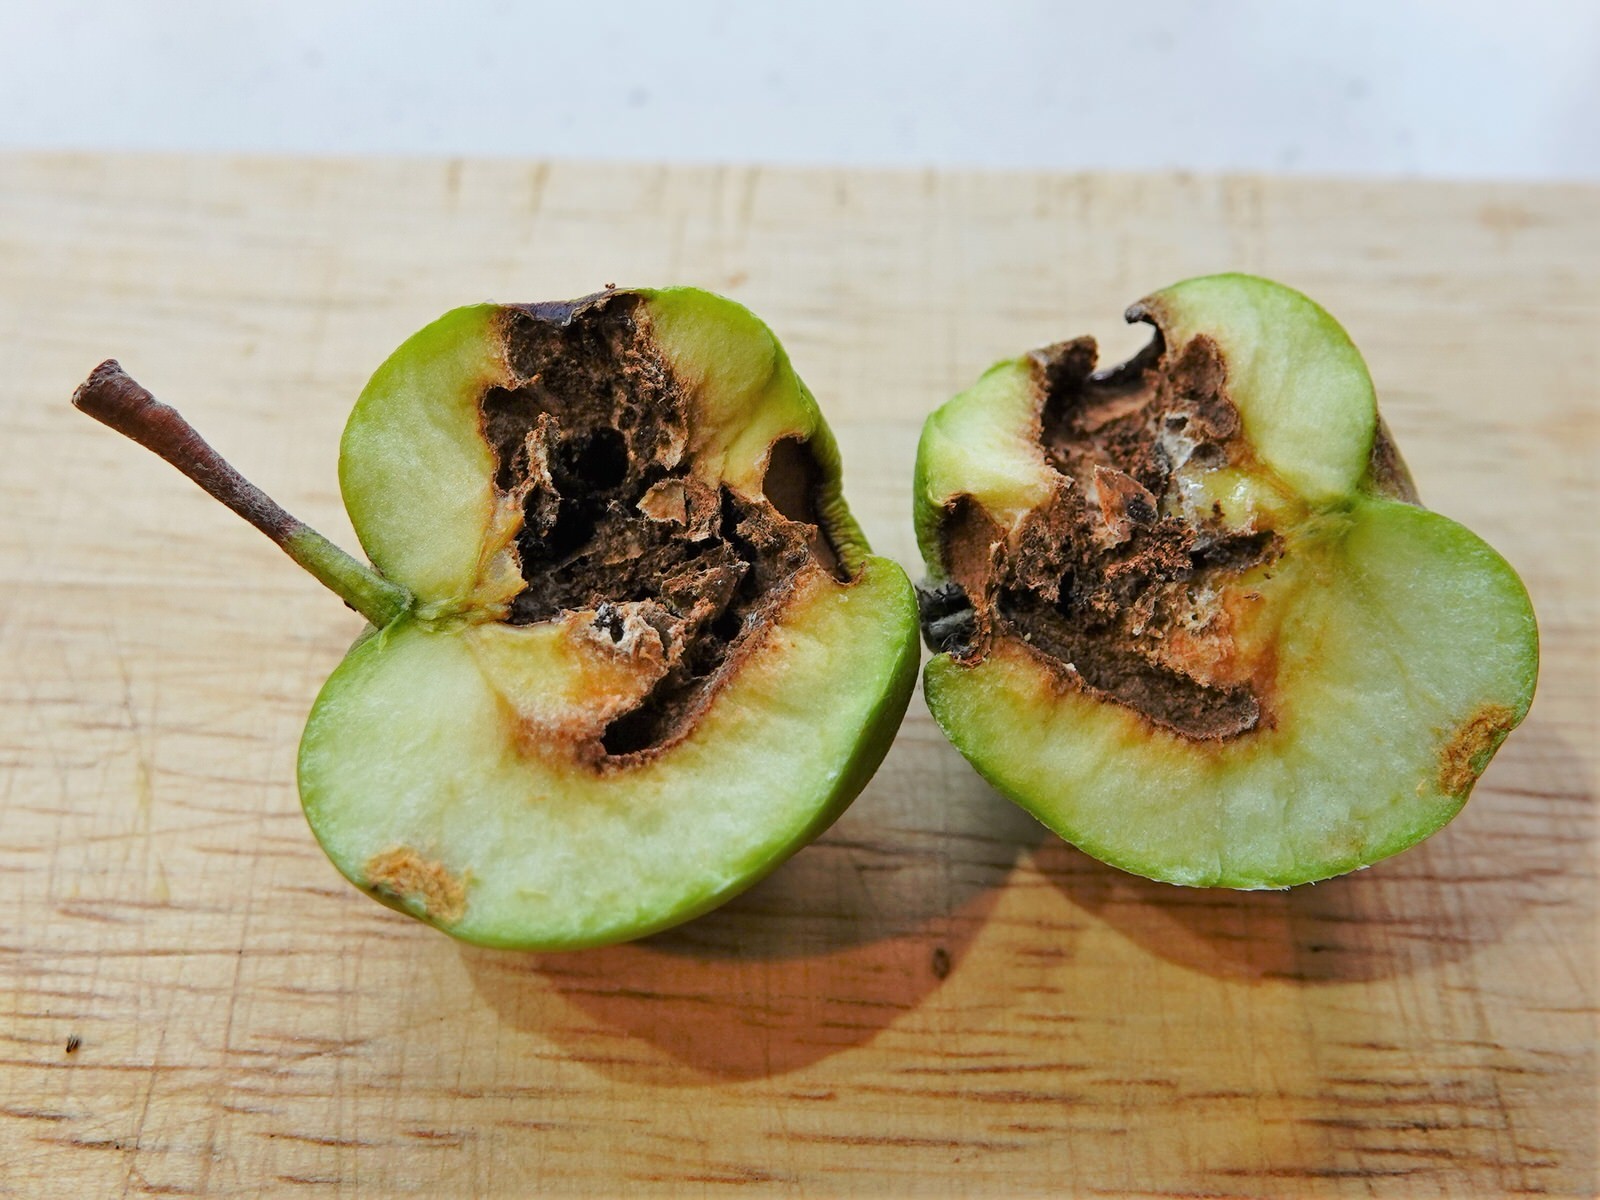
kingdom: Animalia
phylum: Arthropoda
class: Insecta
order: Lepidoptera
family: Tortricidae
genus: Cydia
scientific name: Cydia pomonella
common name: Codling moth
